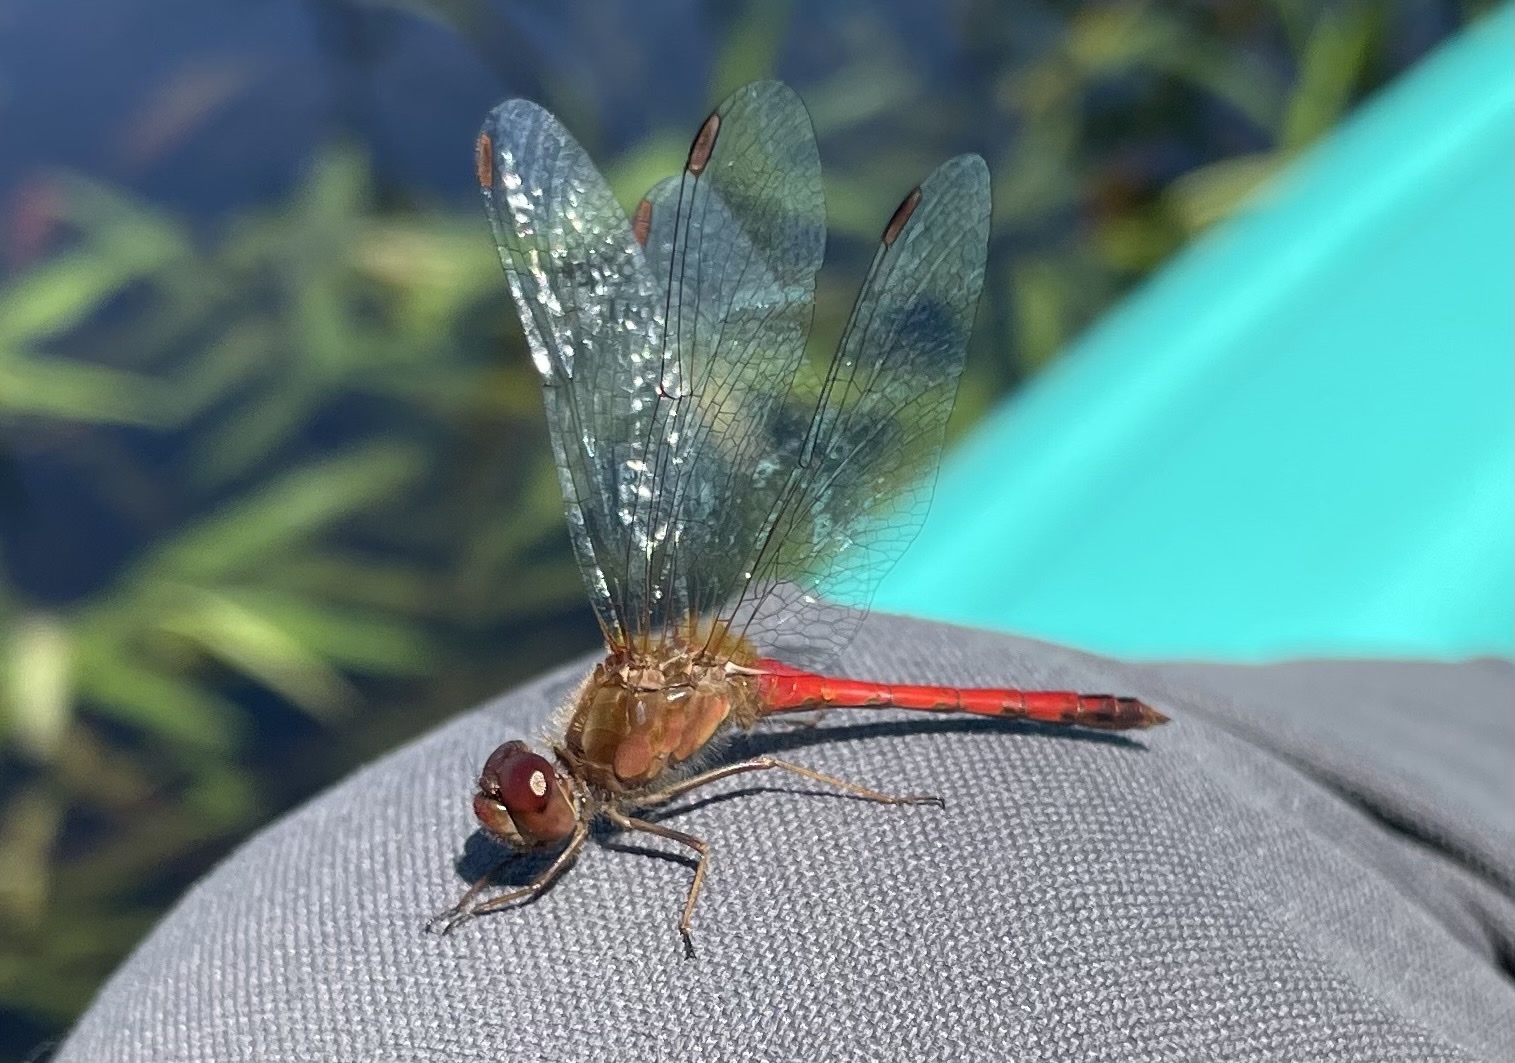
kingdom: Animalia
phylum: Arthropoda
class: Insecta
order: Odonata
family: Libellulidae
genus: Sympetrum
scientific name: Sympetrum vicinum
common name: Autumn meadowhawk
